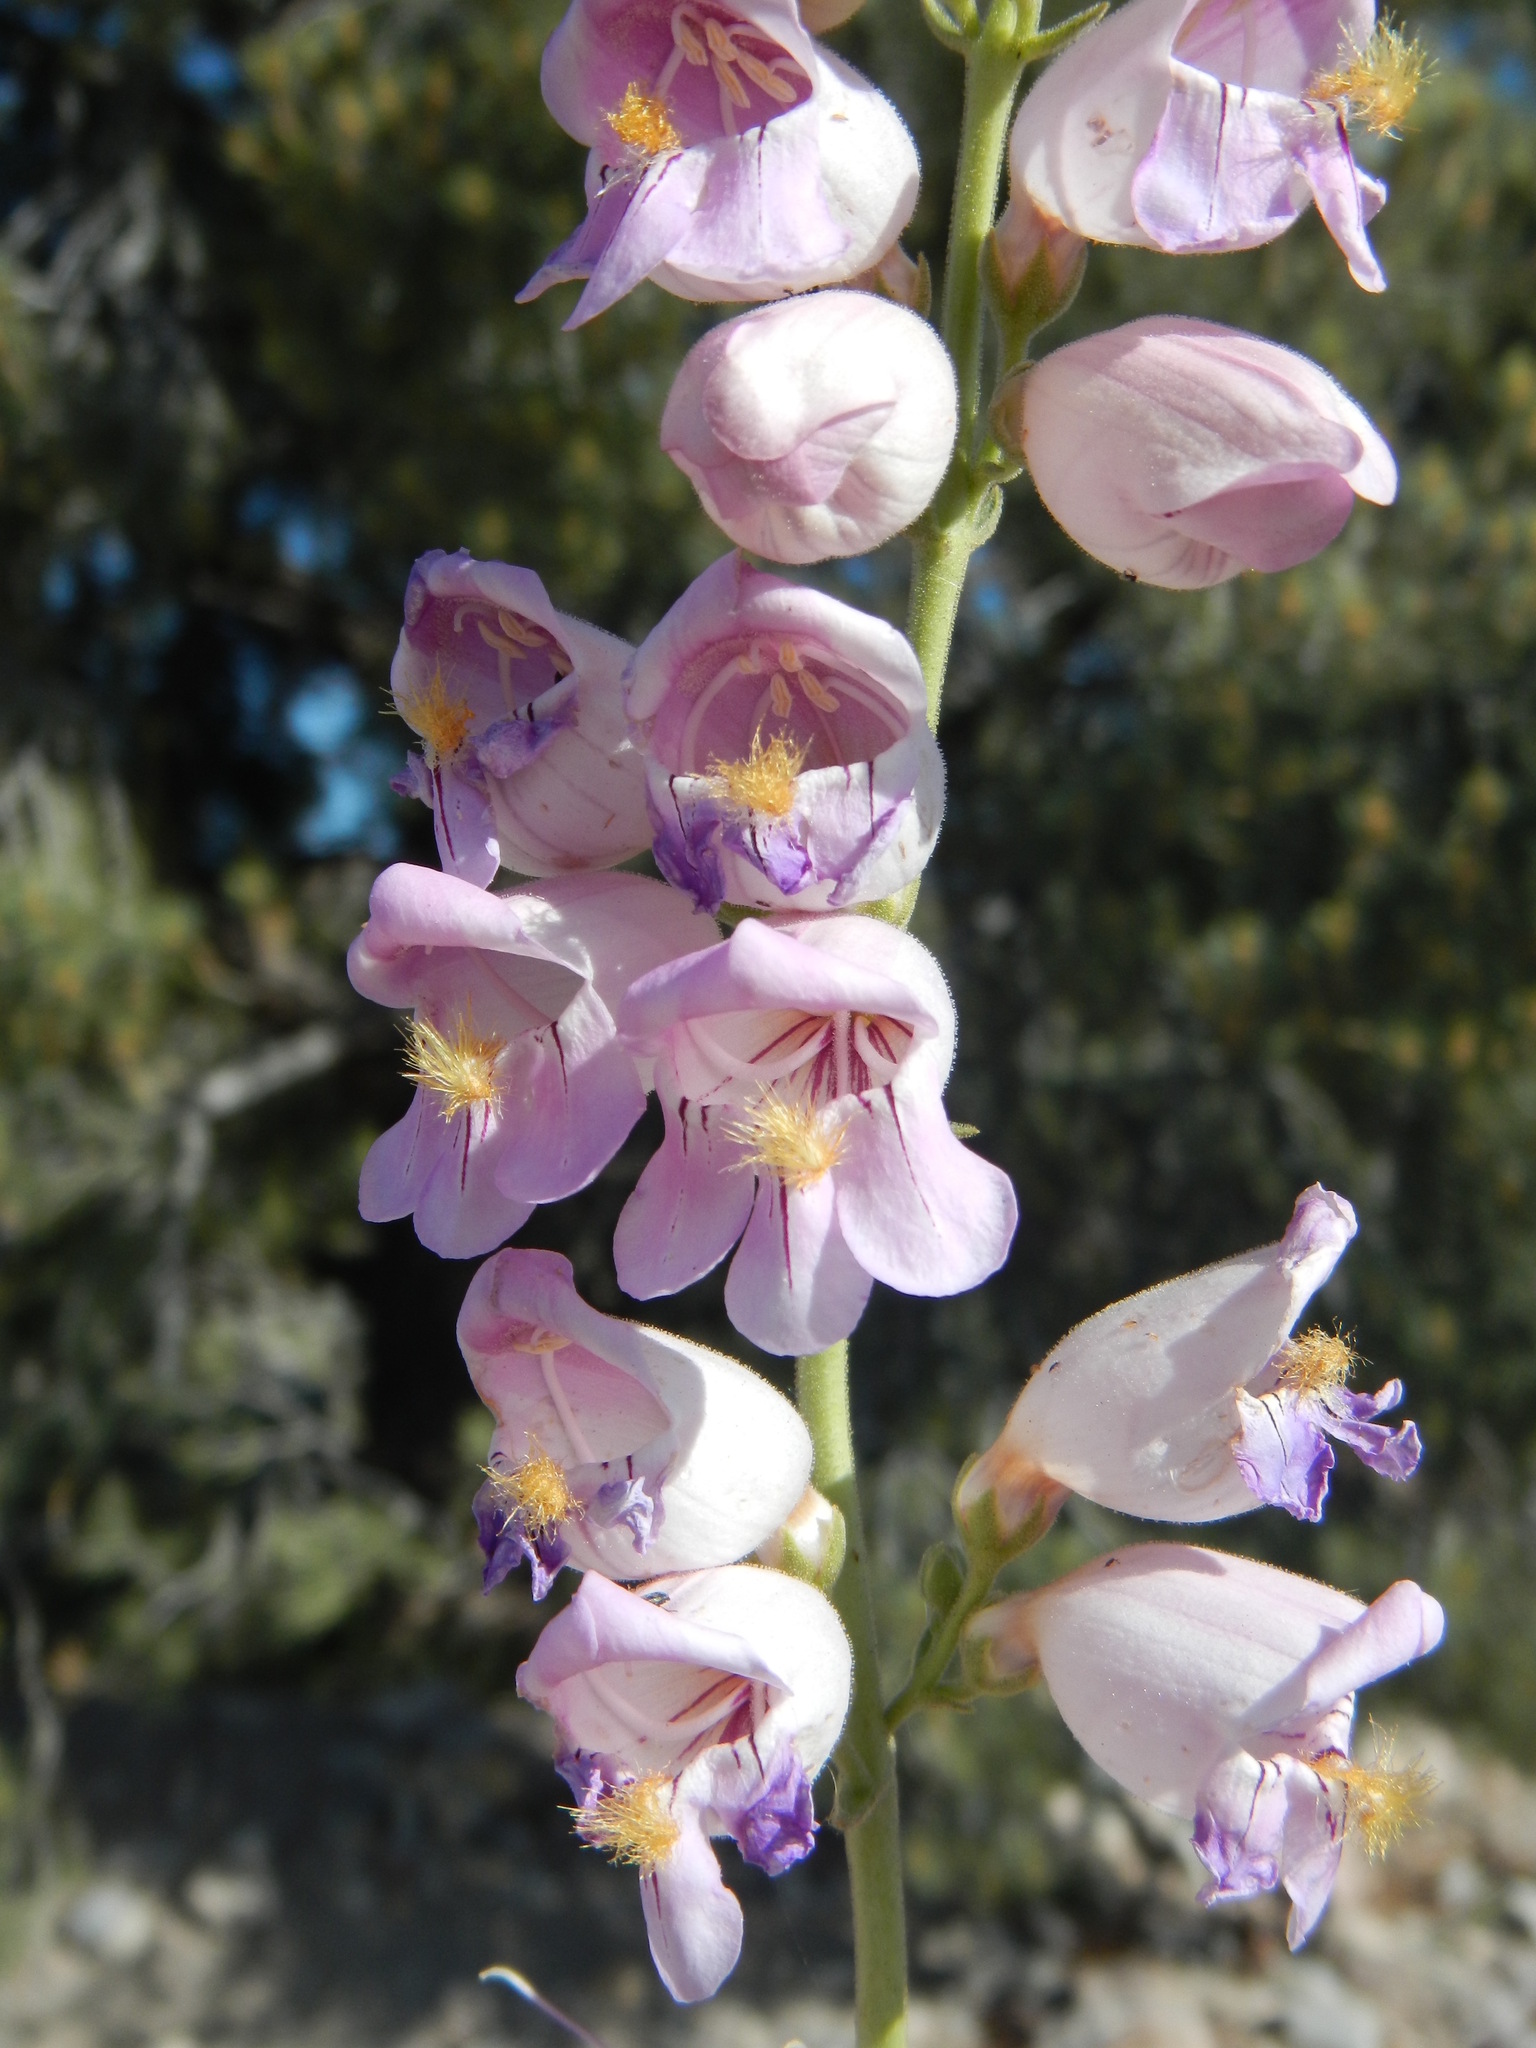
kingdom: Plantae
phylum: Tracheophyta
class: Magnoliopsida
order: Lamiales
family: Plantaginaceae
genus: Penstemon
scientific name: Penstemon palmeri
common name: Palmer penstemon
